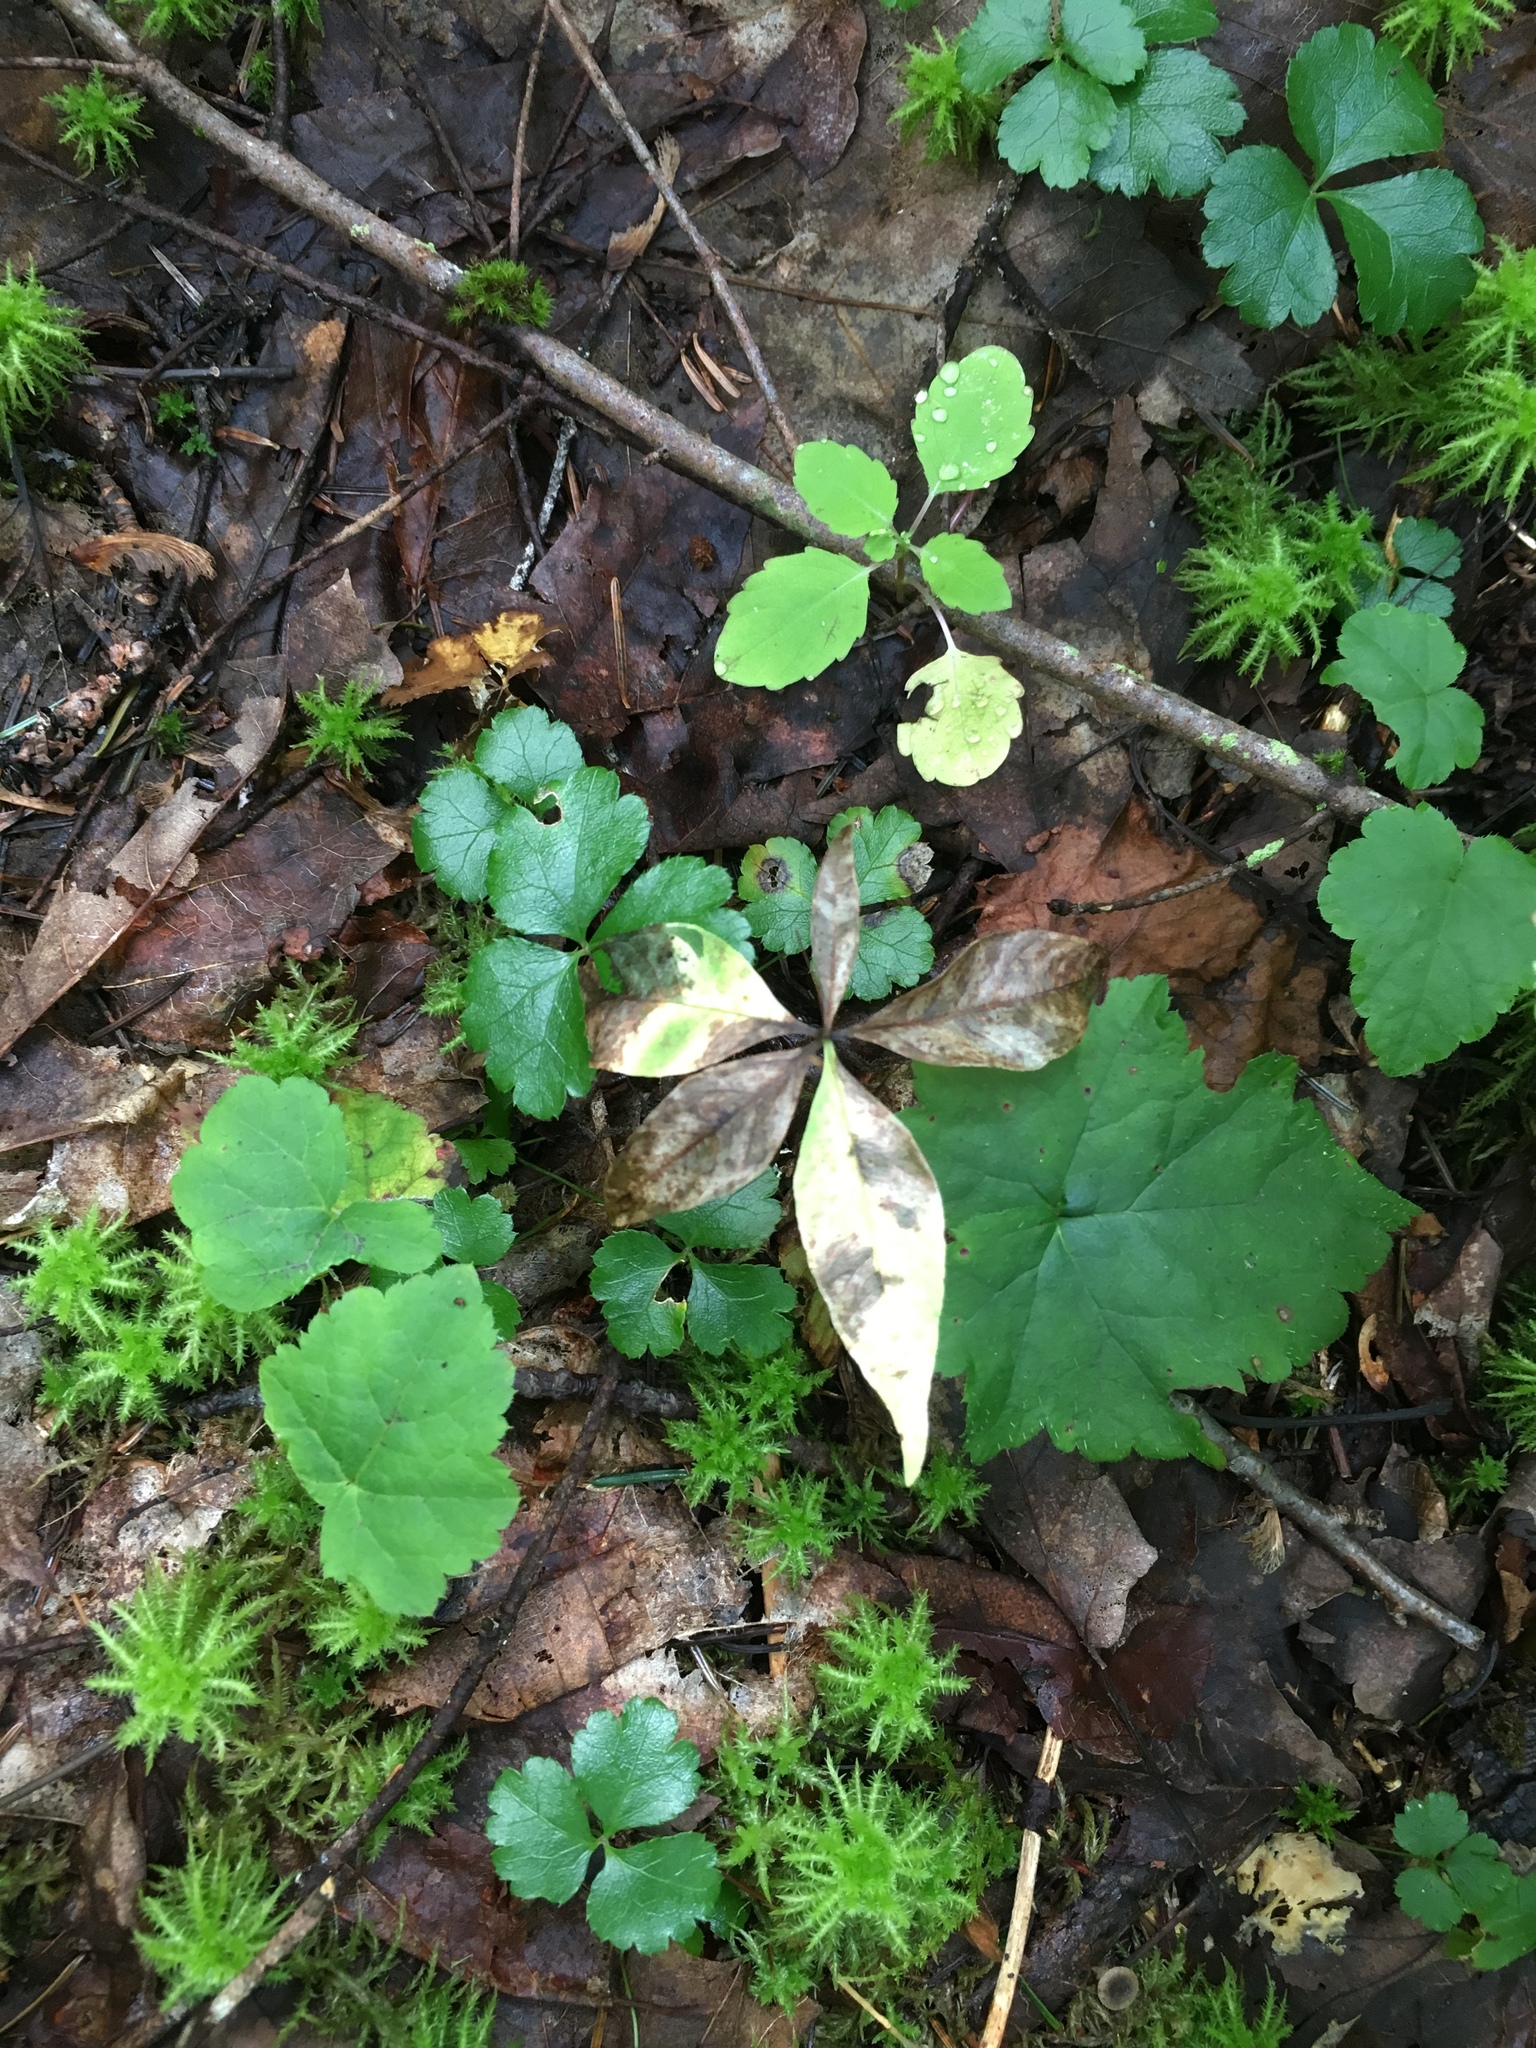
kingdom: Plantae
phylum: Tracheophyta
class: Magnoliopsida
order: Ericales
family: Primulaceae
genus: Lysimachia
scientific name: Lysimachia borealis
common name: American starflower
